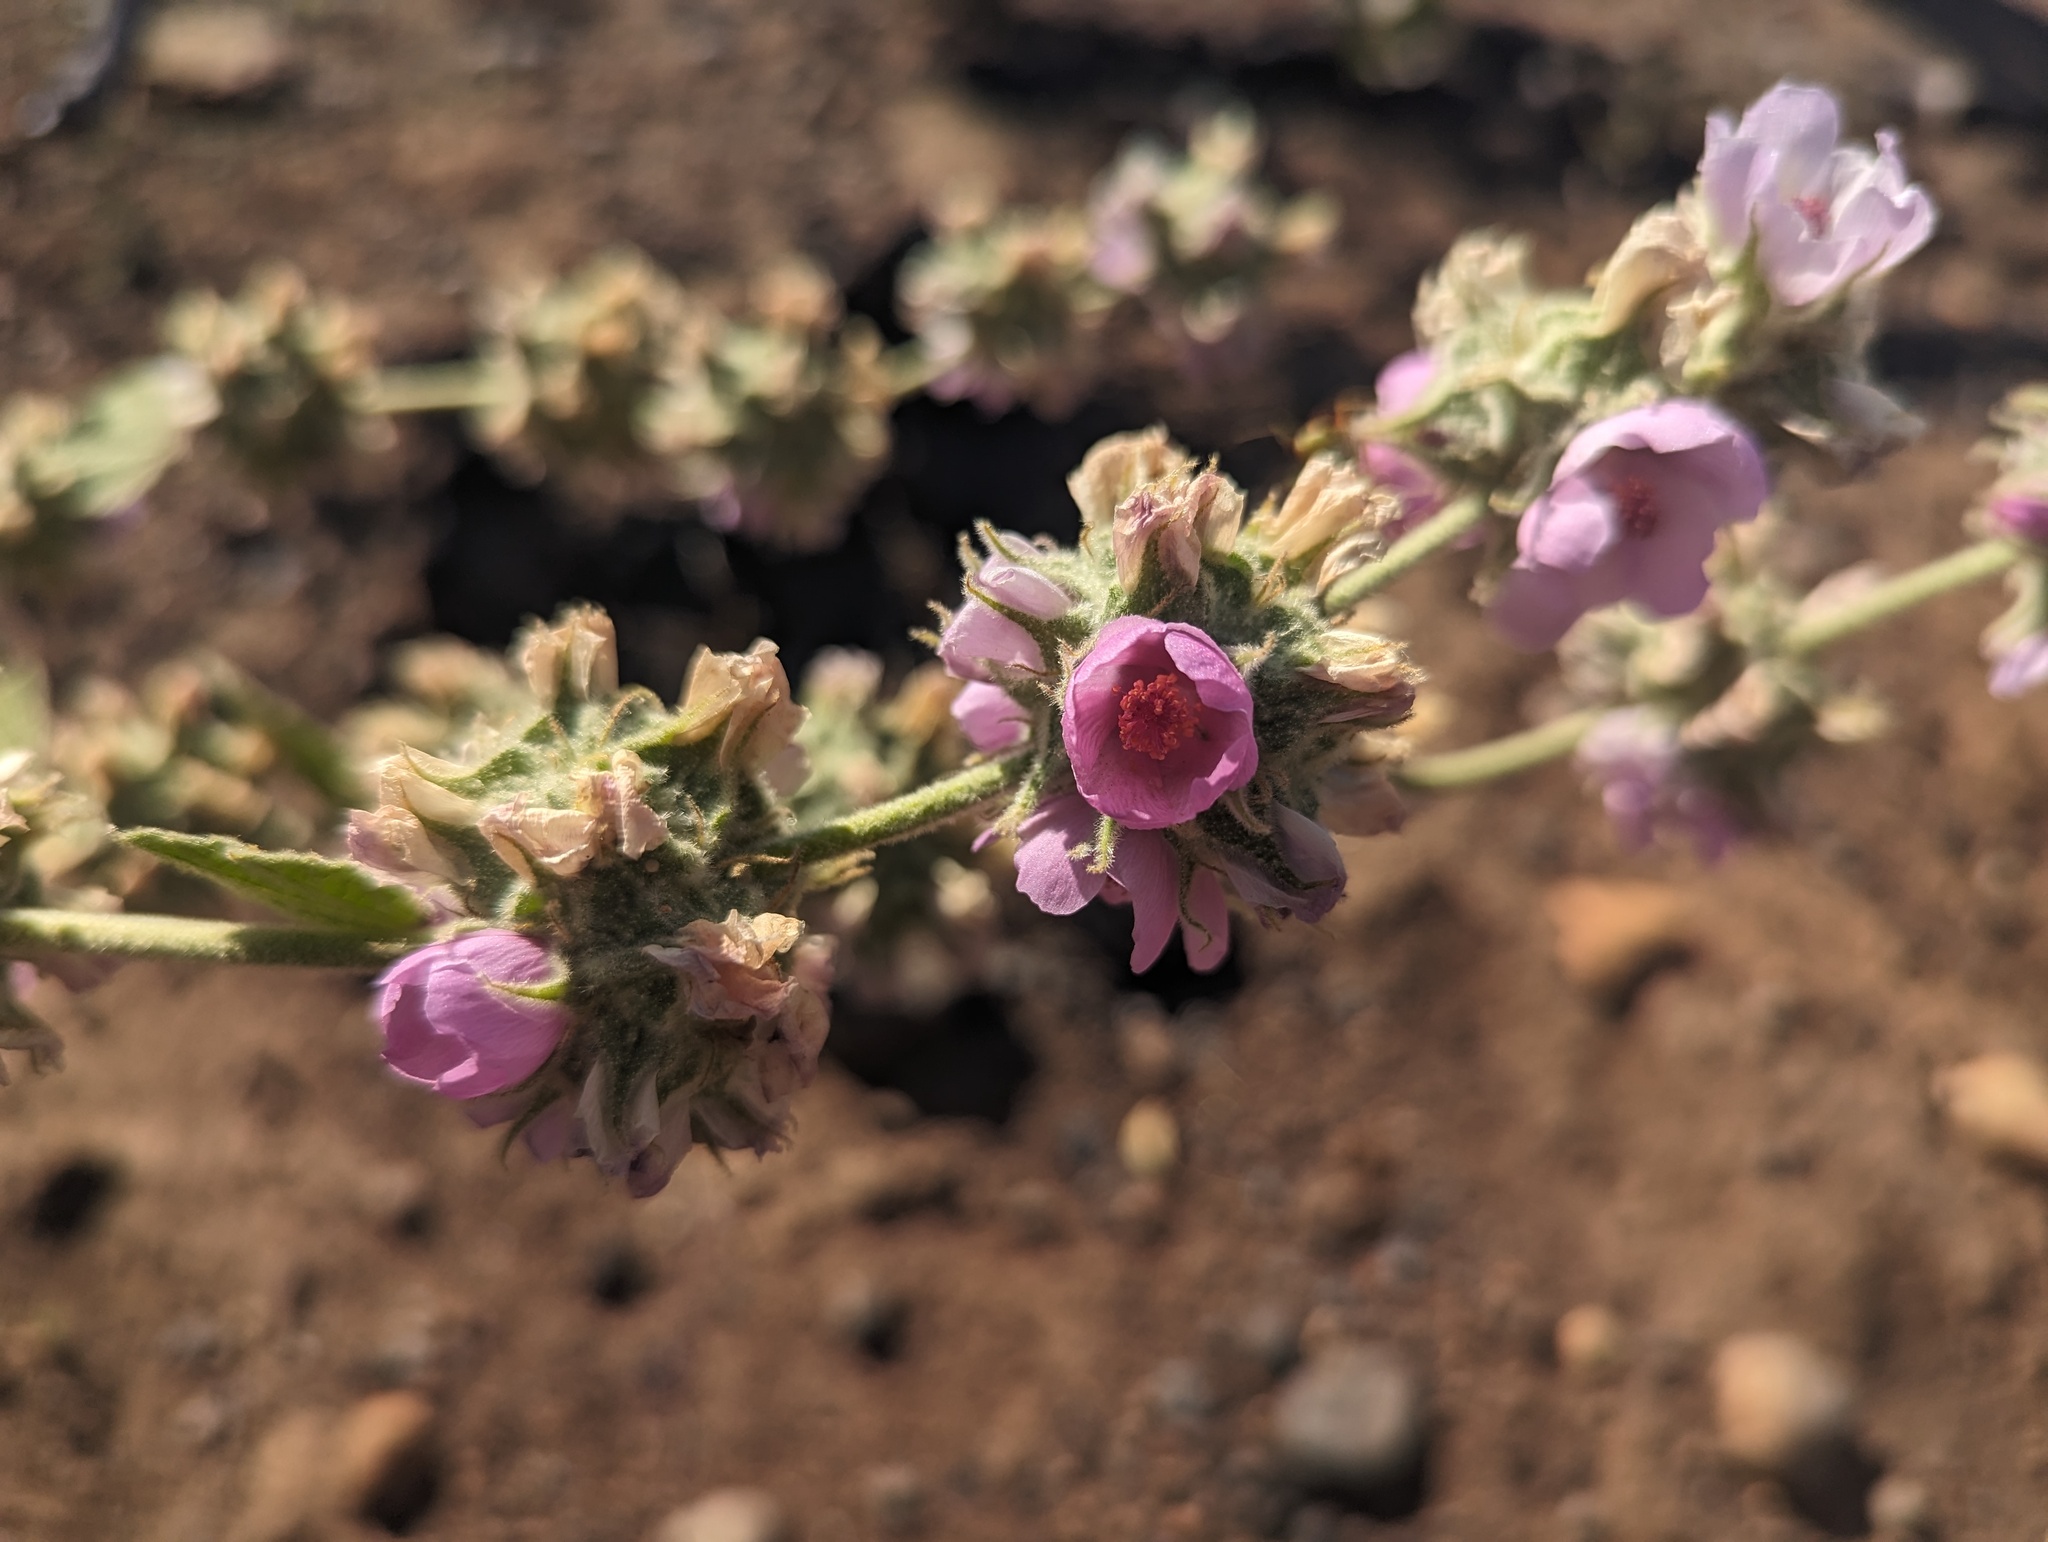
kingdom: Plantae
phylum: Tracheophyta
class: Magnoliopsida
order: Malvales
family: Malvaceae
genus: Malacothamnus
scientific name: Malacothamnus
